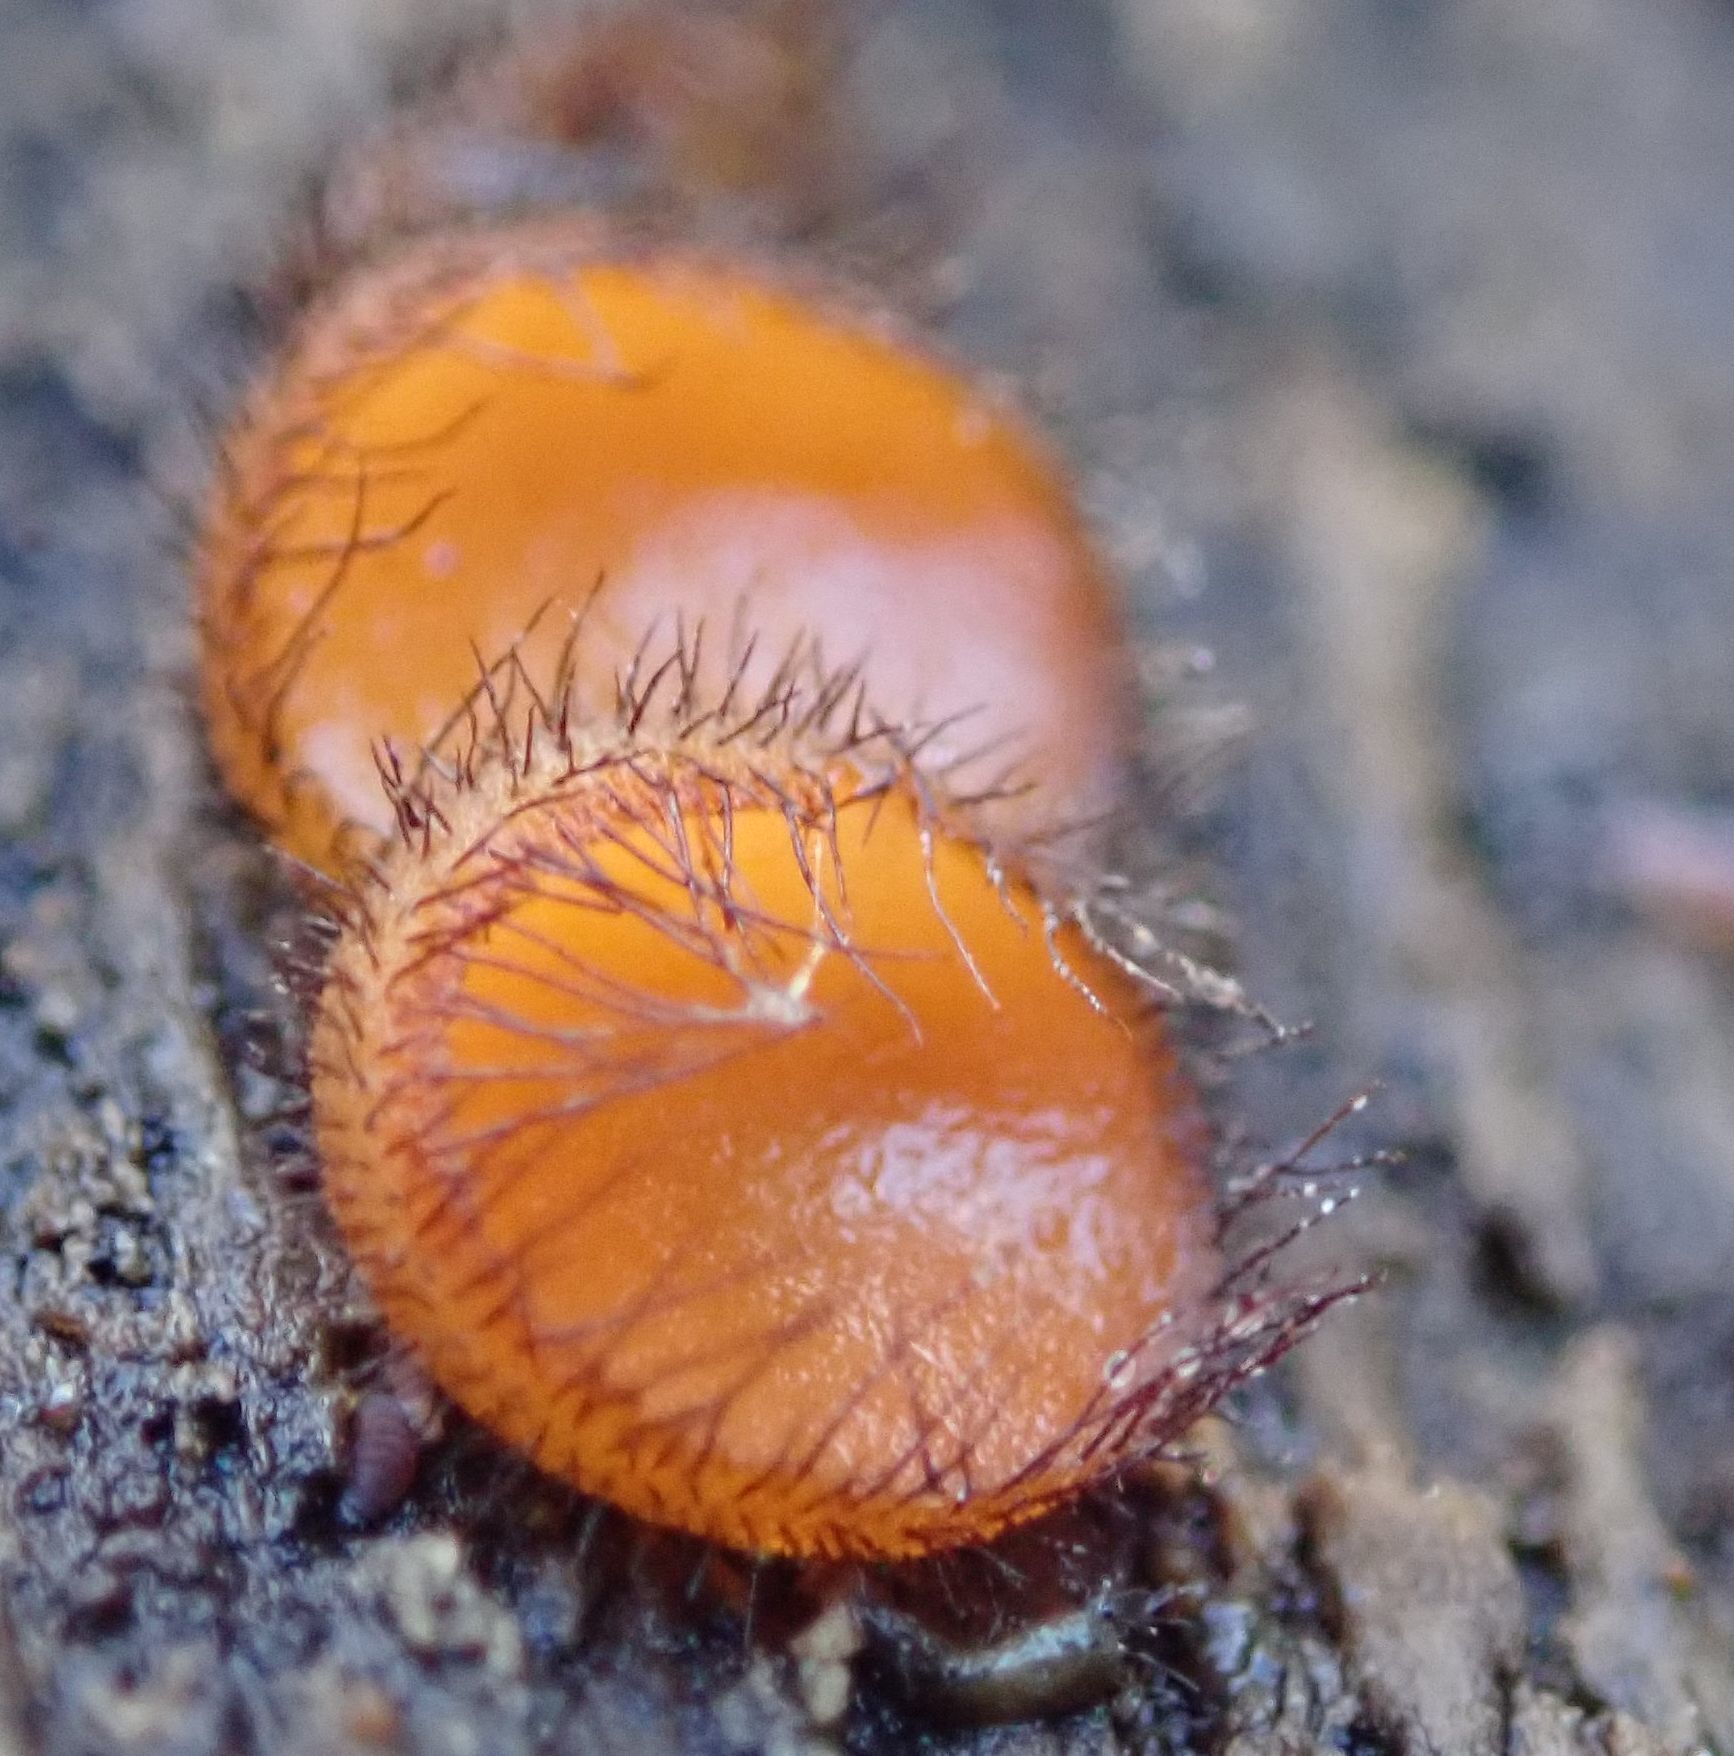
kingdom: Fungi
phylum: Ascomycota
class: Pezizomycetes
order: Pezizales
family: Pyronemataceae
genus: Scutellinia
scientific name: Scutellinia
